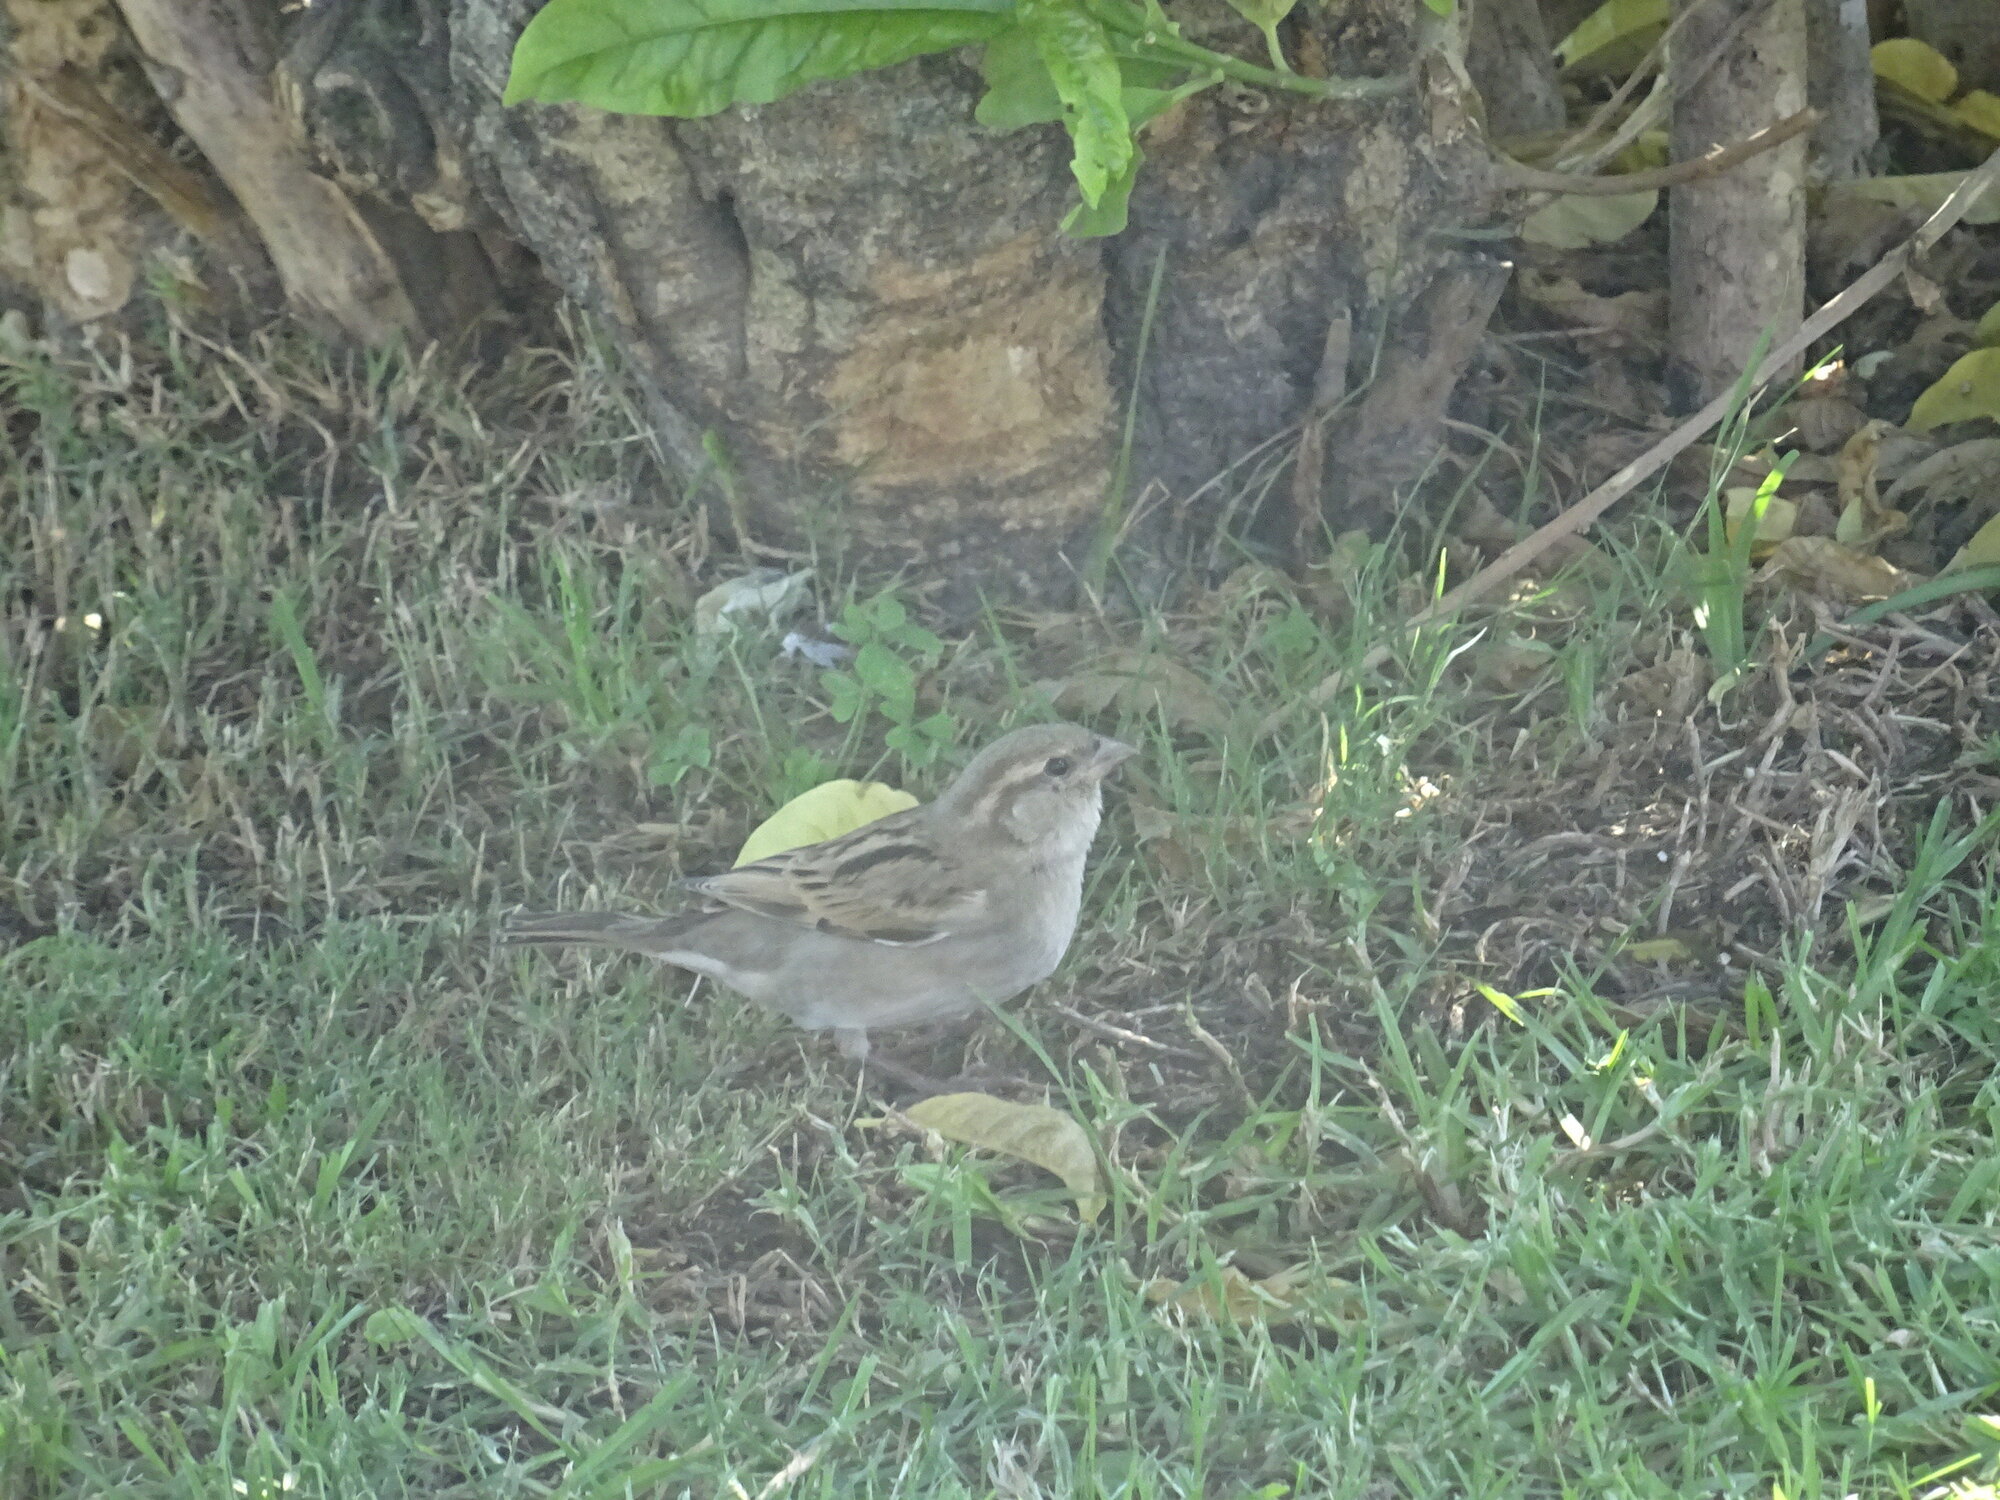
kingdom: Animalia
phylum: Chordata
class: Aves
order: Passeriformes
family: Passeridae
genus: Passer
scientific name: Passer domesticus
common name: House sparrow
